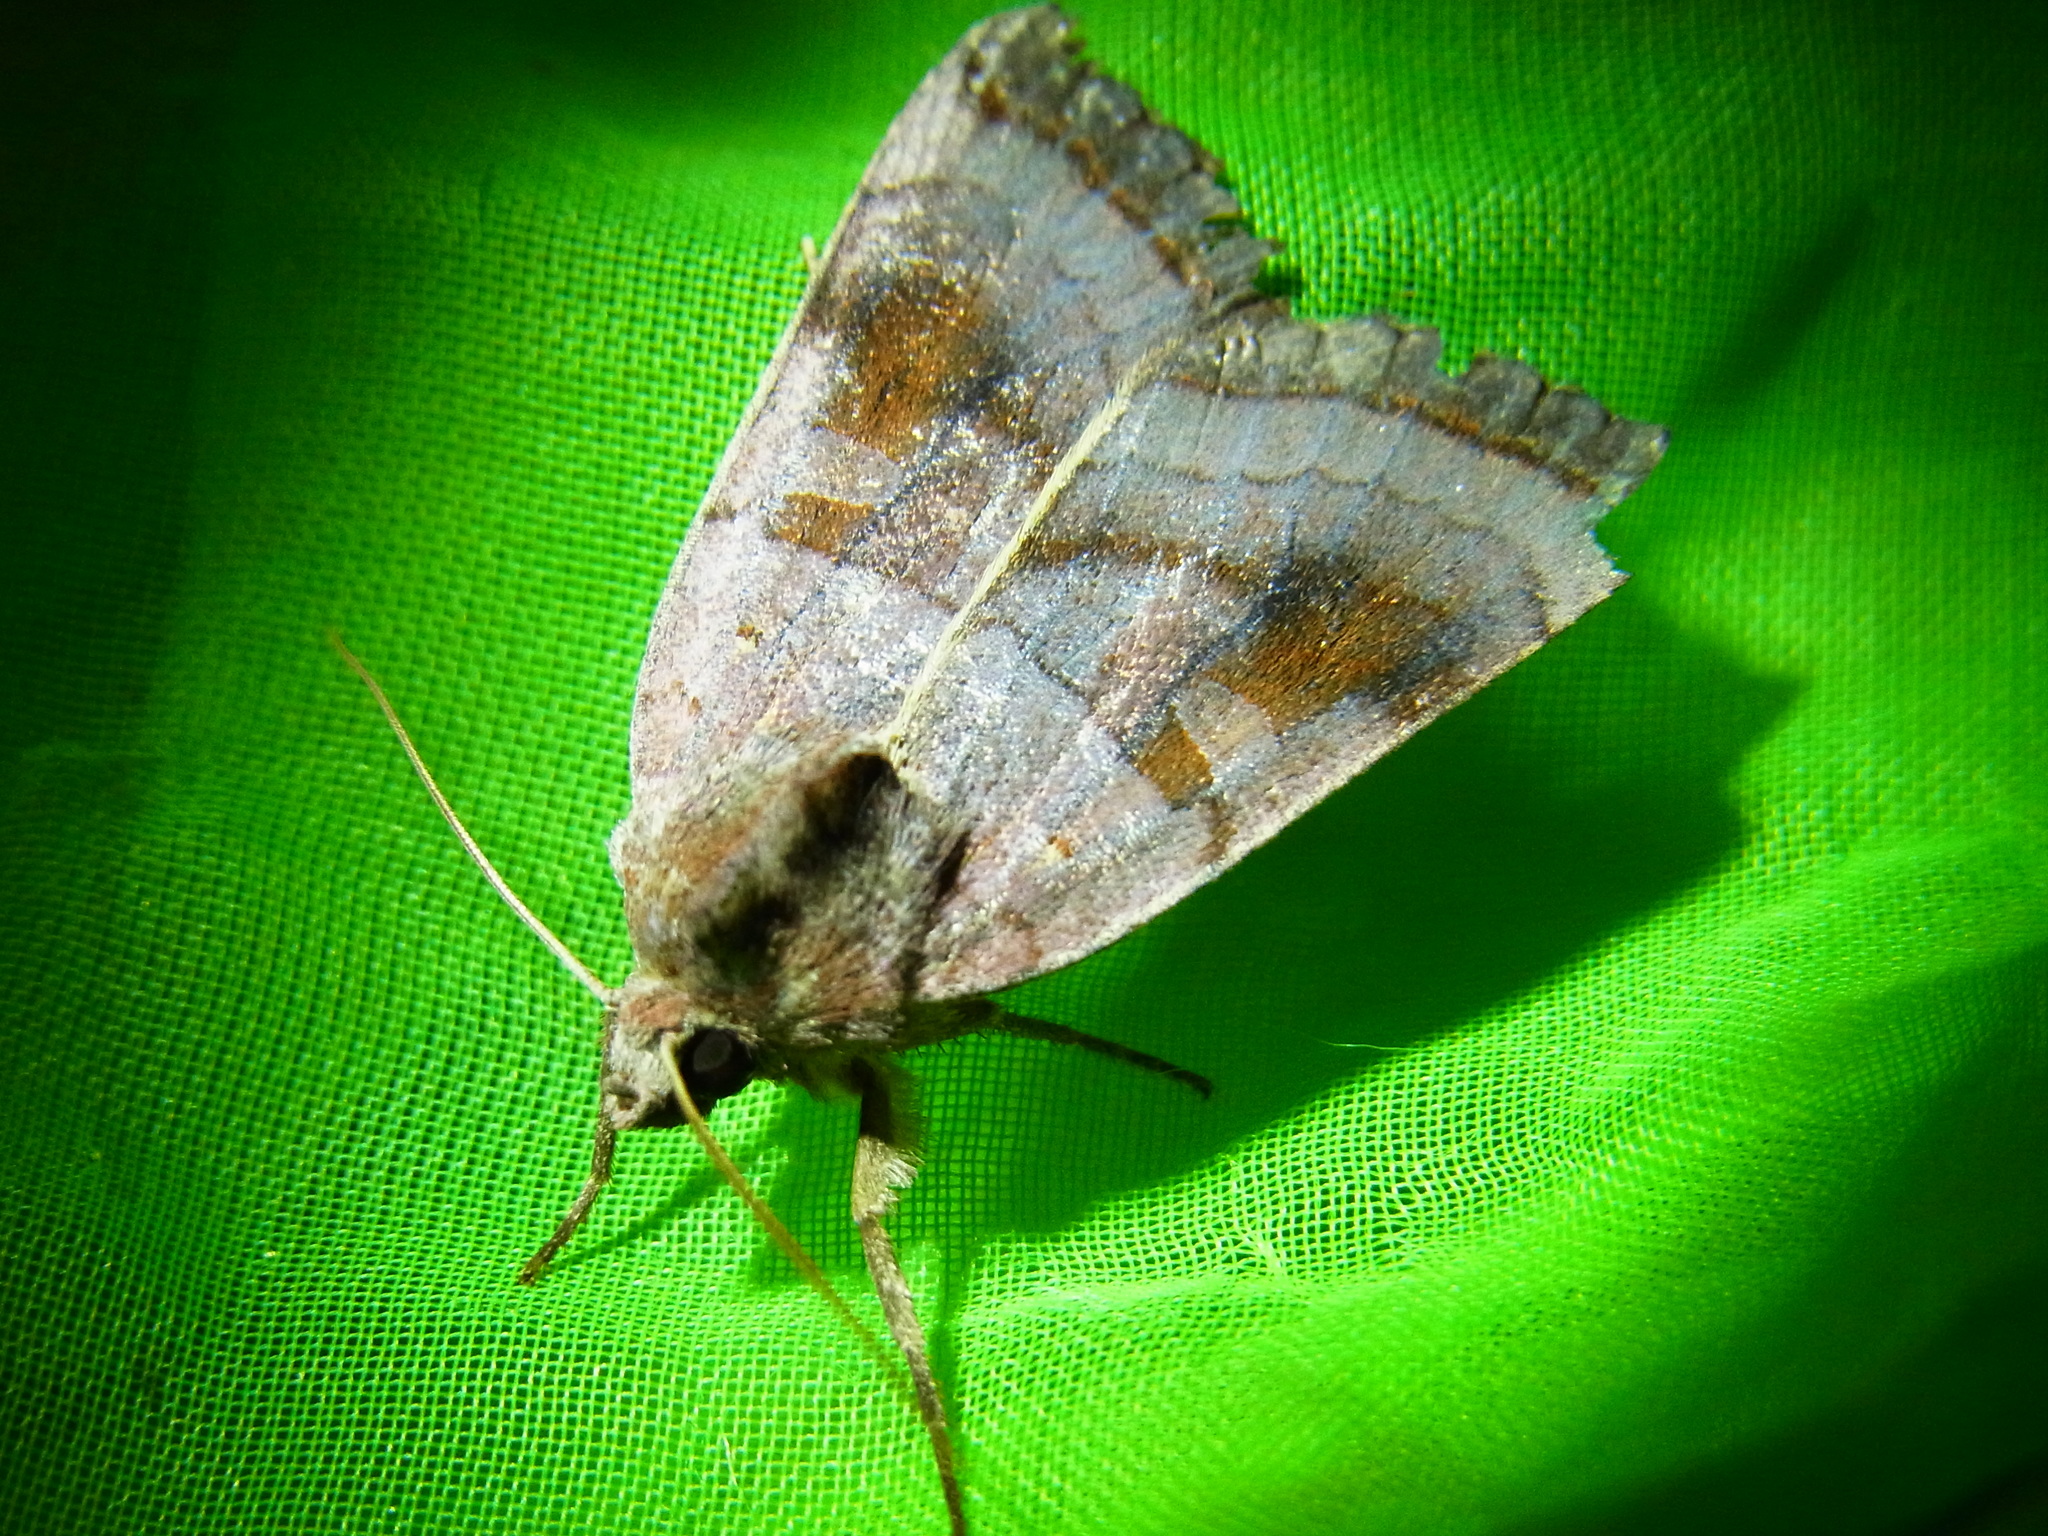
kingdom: Animalia
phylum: Arthropoda
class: Insecta
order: Lepidoptera
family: Noctuidae
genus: Xestia
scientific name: Xestia dilatata
